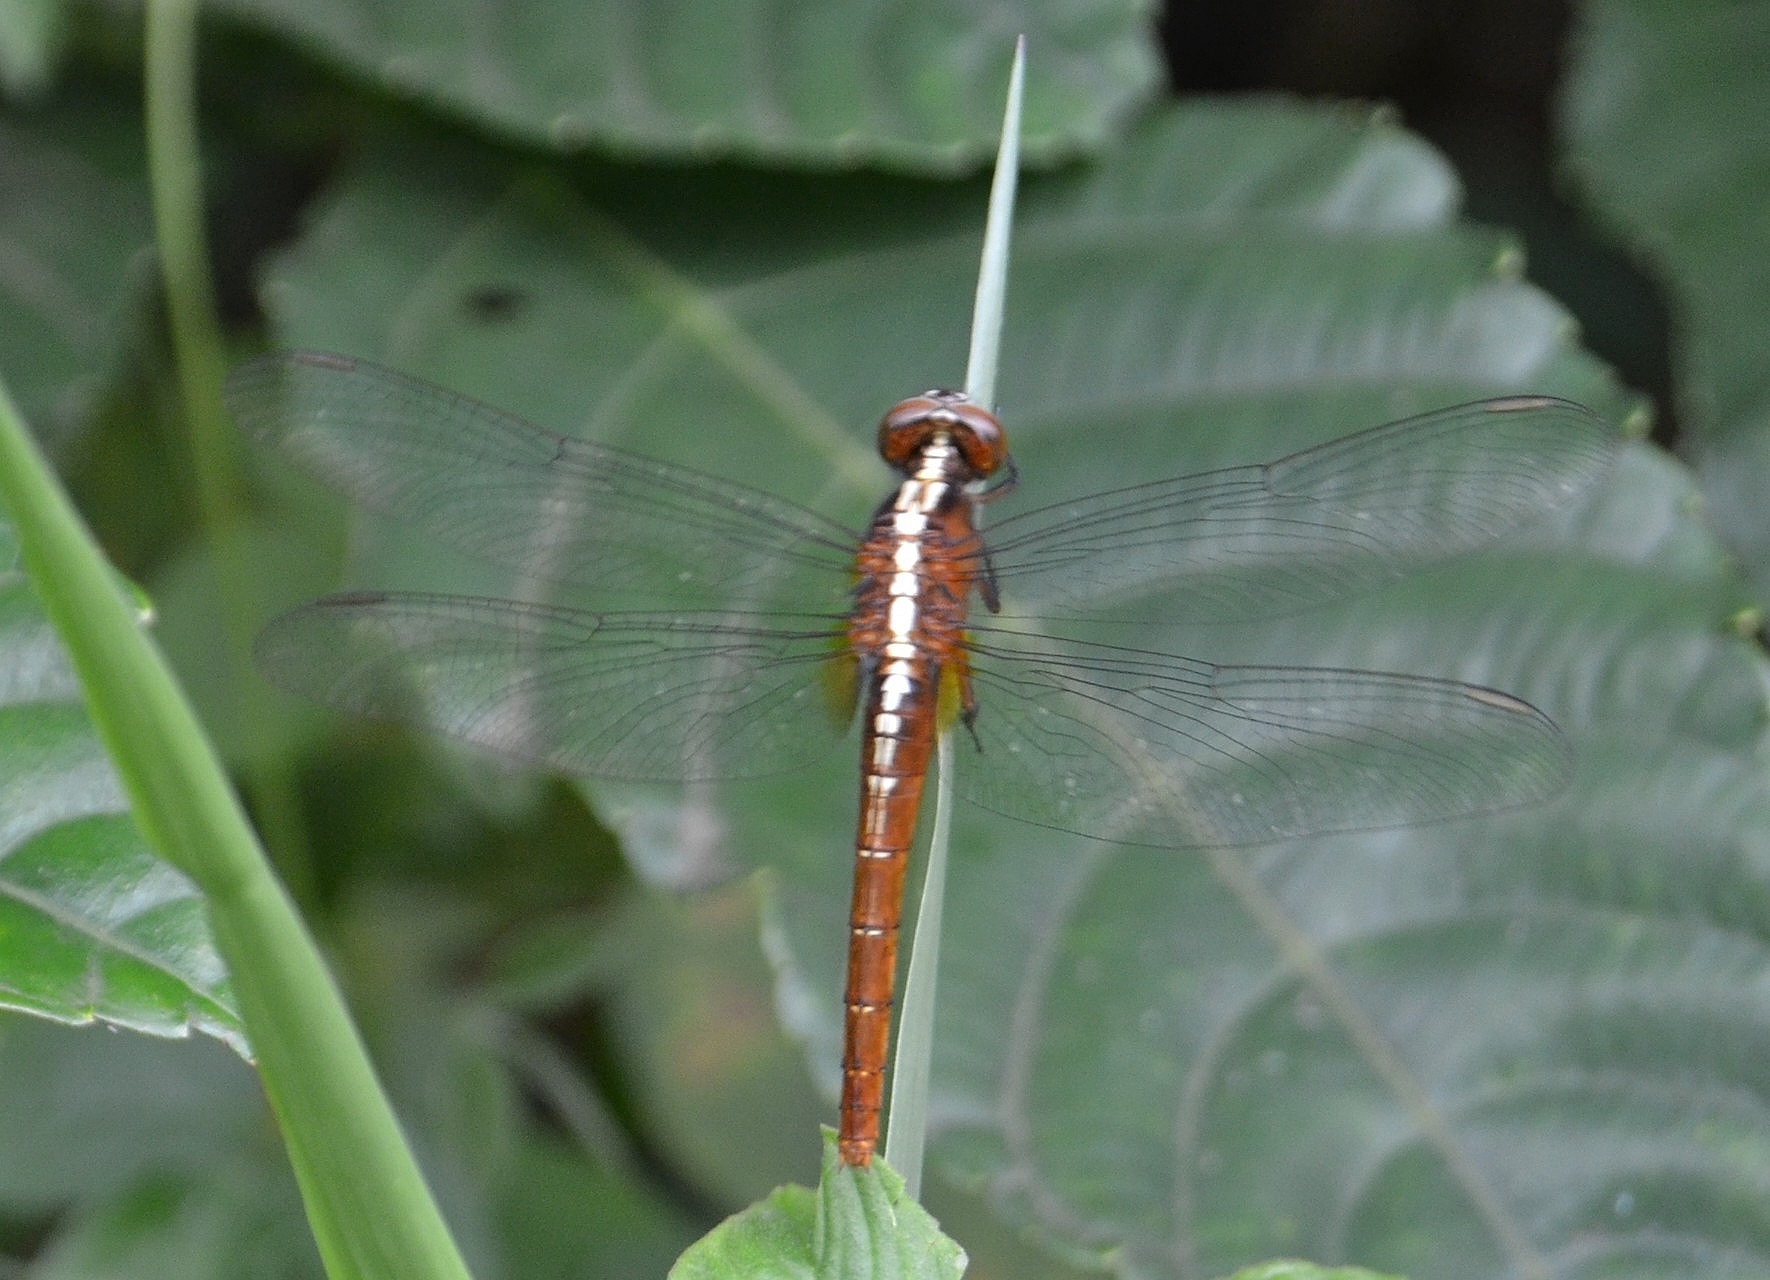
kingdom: Animalia
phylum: Arthropoda
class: Insecta
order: Odonata
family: Libellulidae
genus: Rhodothemis
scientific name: Rhodothemis rufa
